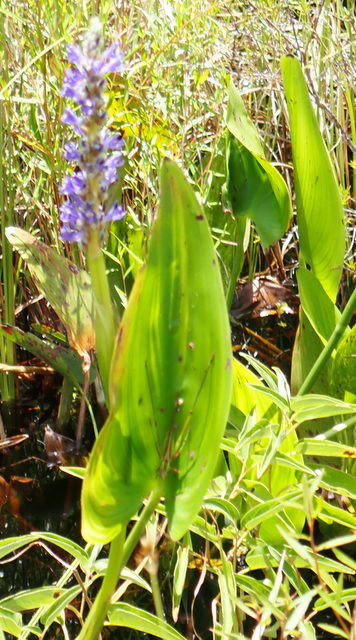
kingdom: Plantae
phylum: Tracheophyta
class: Liliopsida
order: Commelinales
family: Pontederiaceae
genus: Pontederia
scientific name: Pontederia cordata
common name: Pickerelweed
